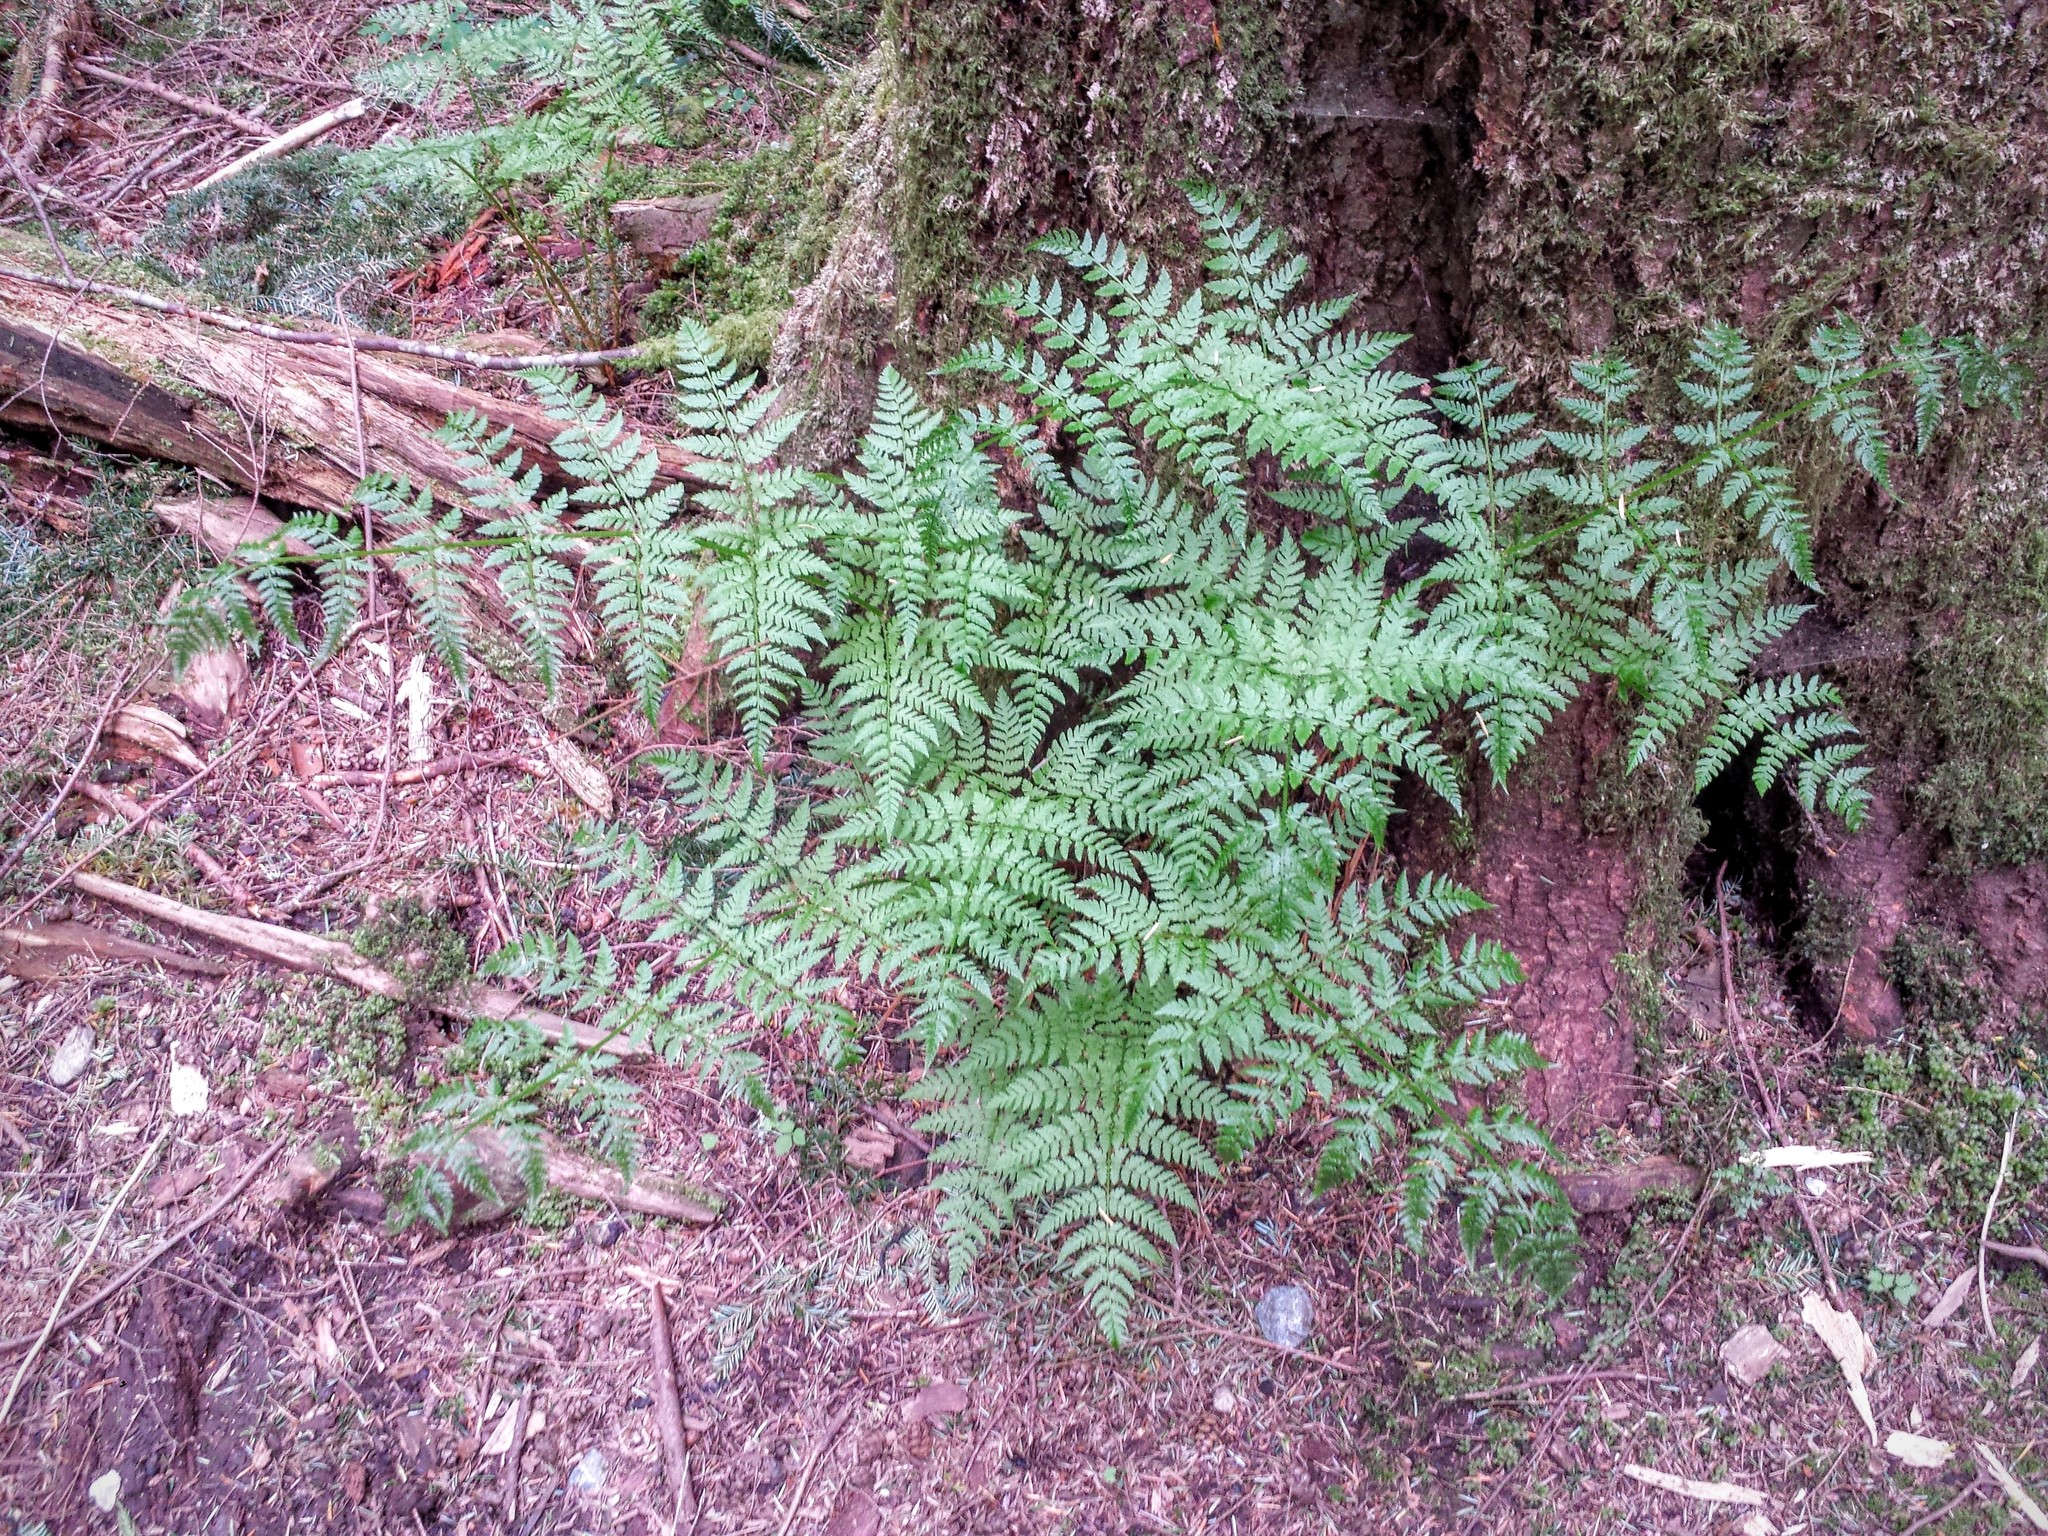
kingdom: Plantae
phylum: Tracheophyta
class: Polypodiopsida
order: Polypodiales
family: Dryopteridaceae
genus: Dryopteris
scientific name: Dryopteris expansa
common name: Northern buckler fern
